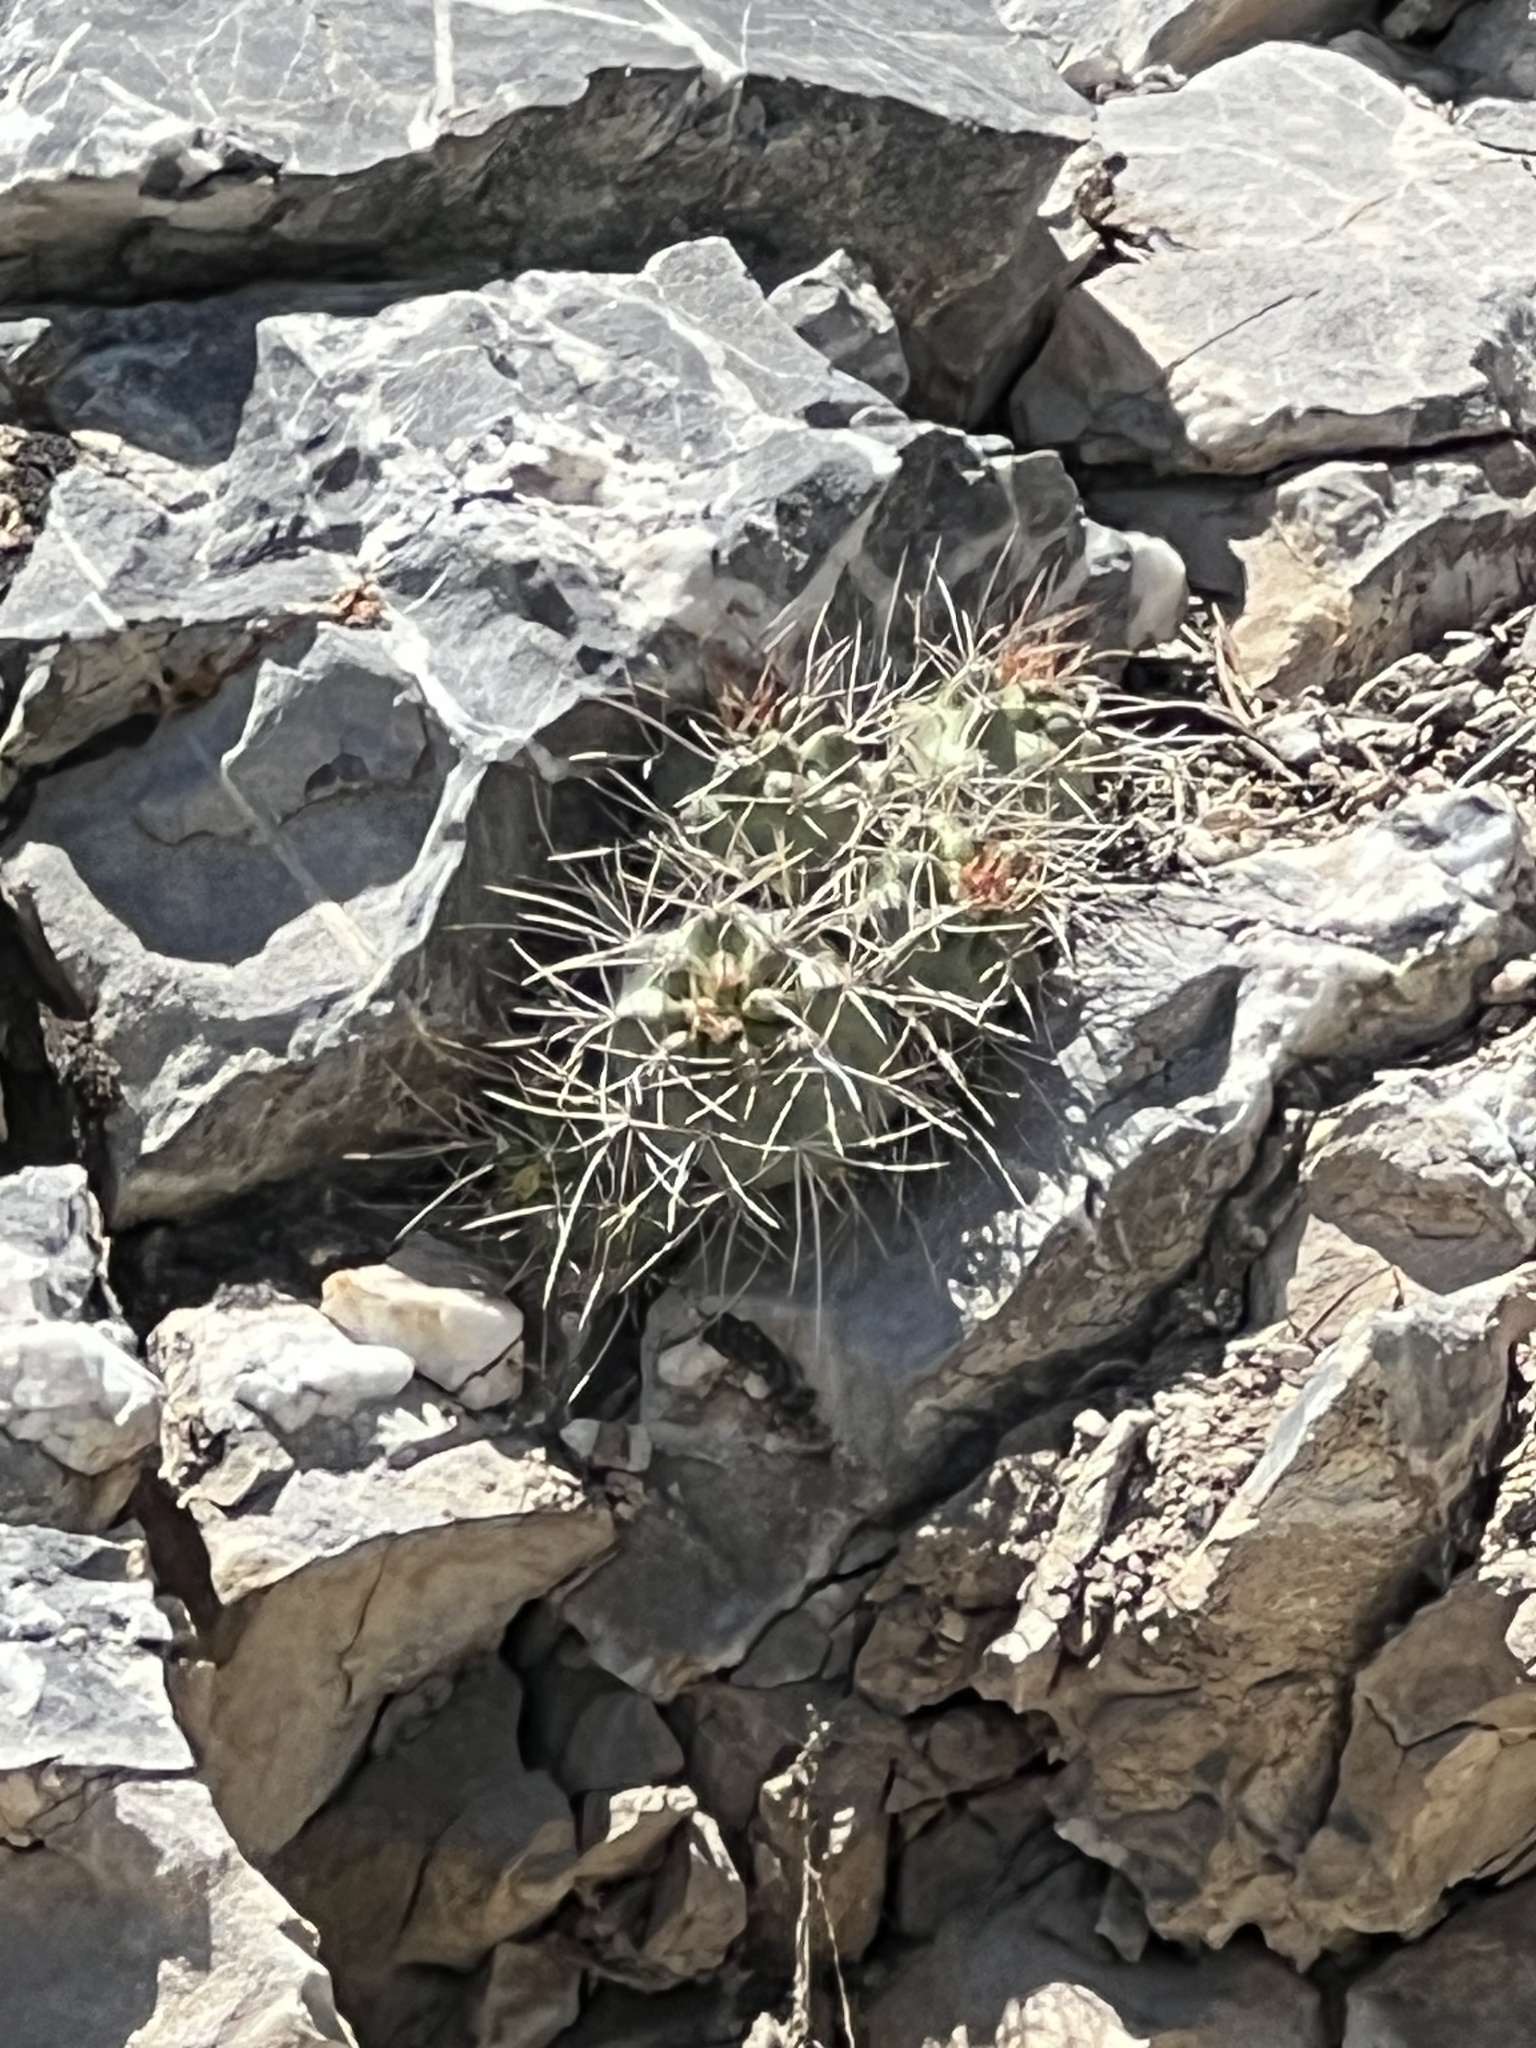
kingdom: Plantae
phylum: Tracheophyta
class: Magnoliopsida
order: Caryophyllales
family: Cactaceae
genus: Echinocereus
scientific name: Echinocereus triglochidiatus
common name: Claretcup hedgehog
